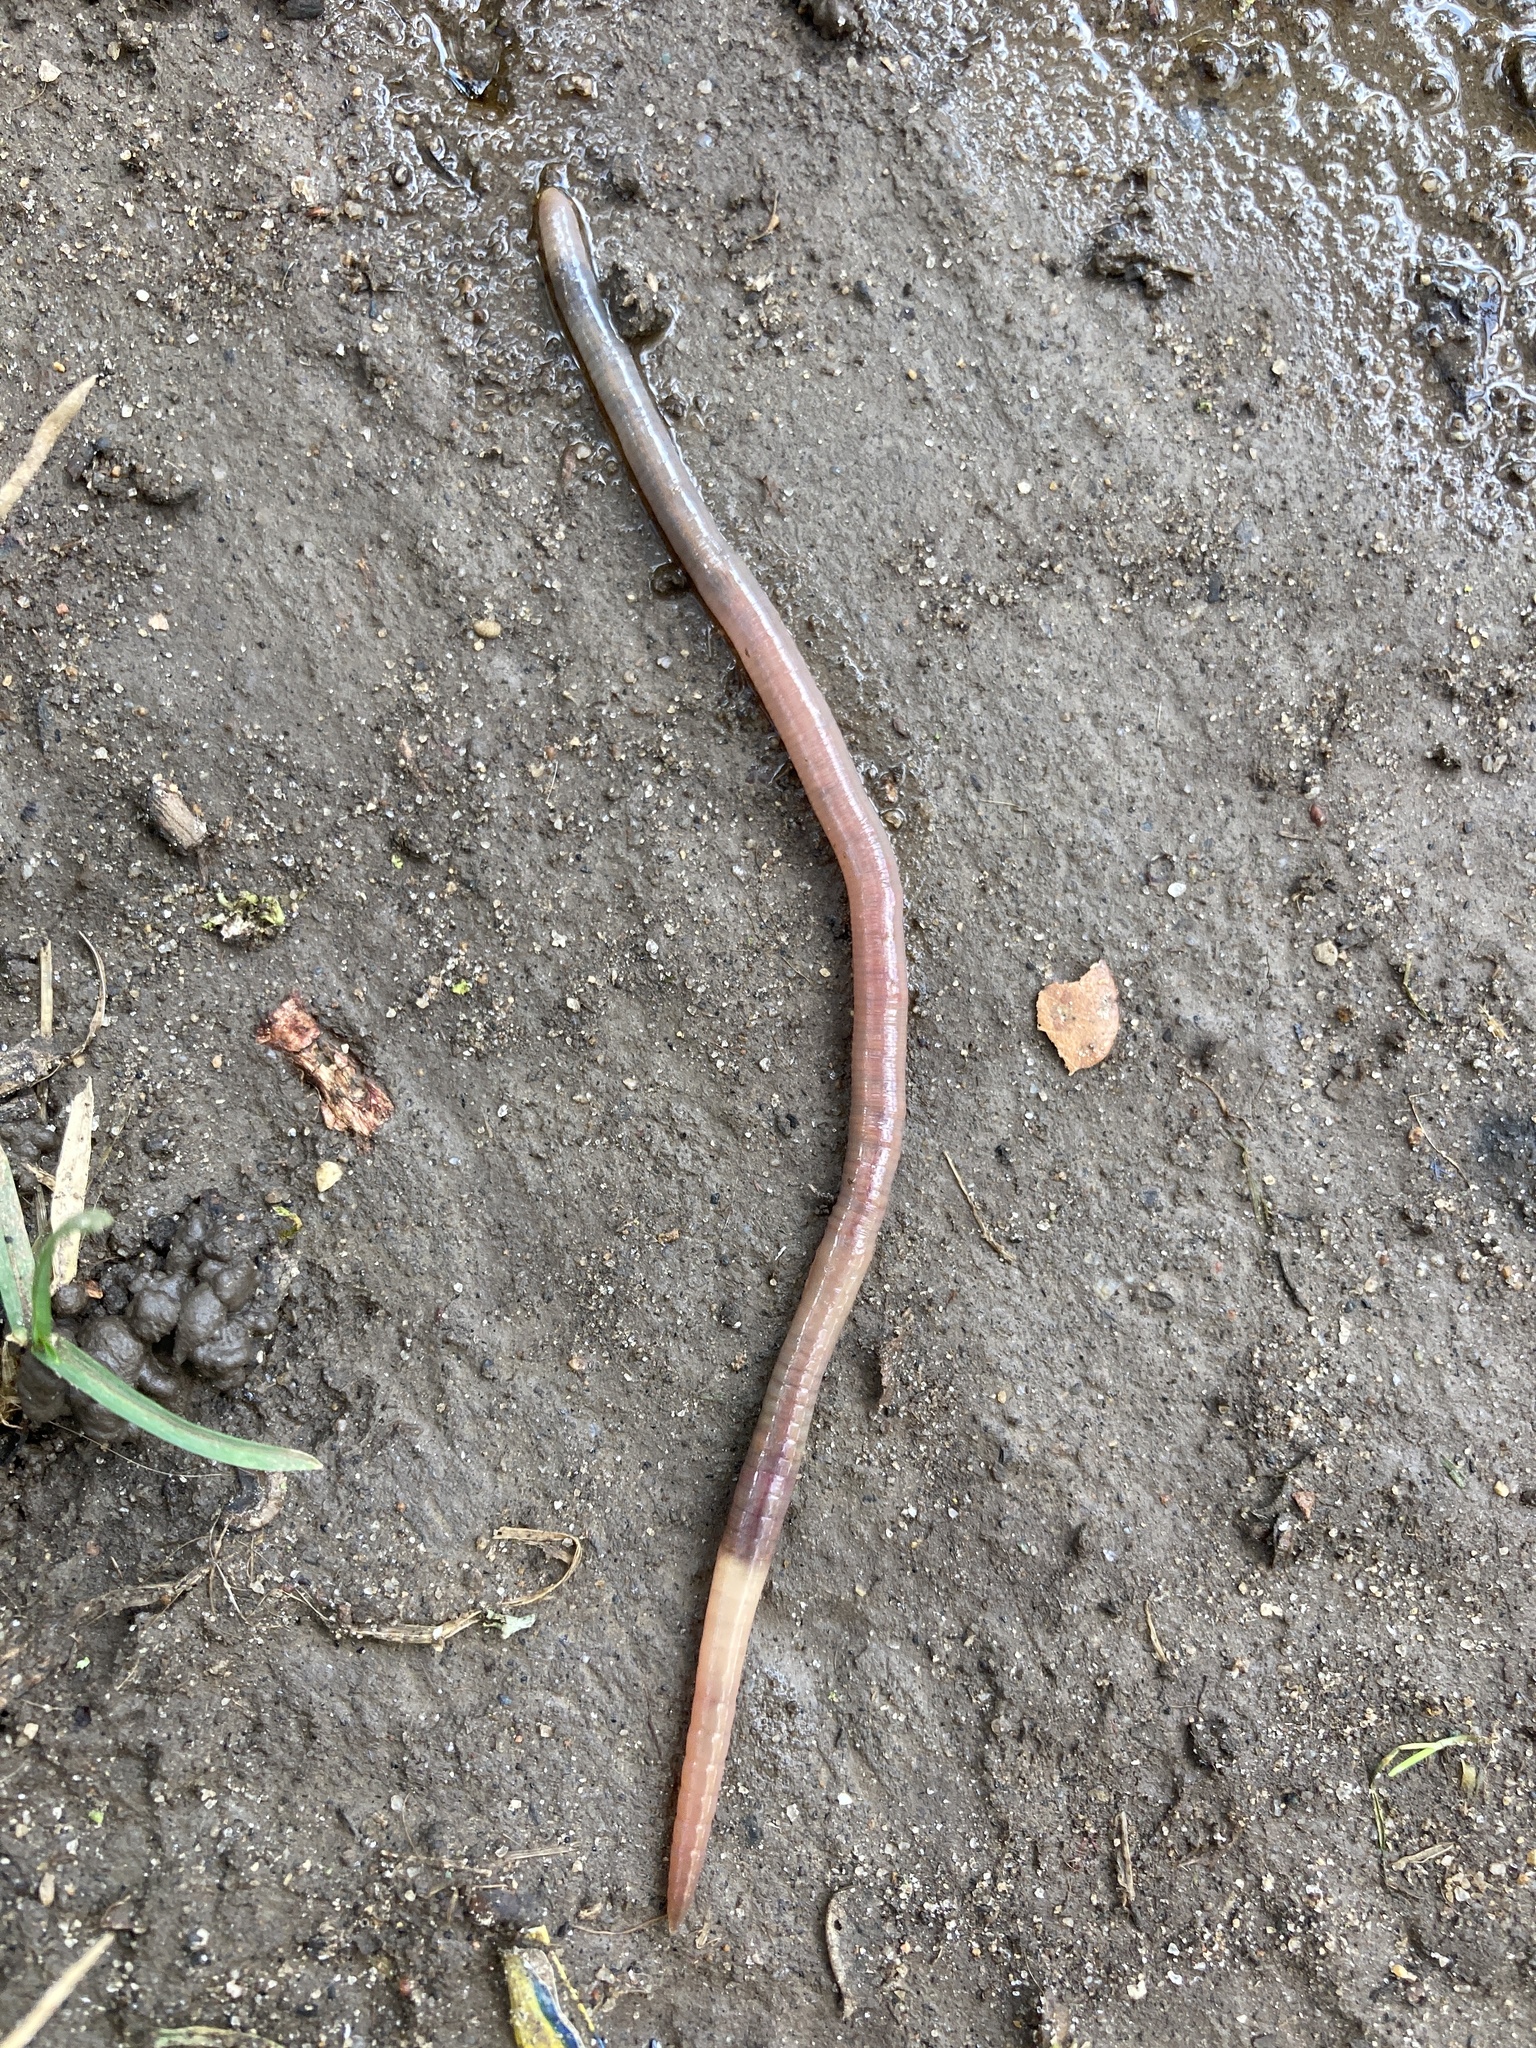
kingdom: Animalia
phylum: Annelida
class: Clitellata
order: Crassiclitellata
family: Lumbricidae
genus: Lumbricus
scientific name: Lumbricus terrestris
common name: Common earthworm
